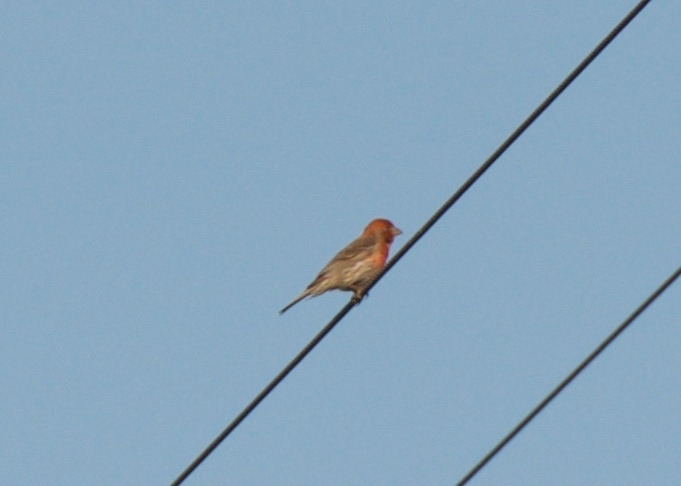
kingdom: Animalia
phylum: Chordata
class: Aves
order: Passeriformes
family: Fringillidae
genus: Haemorhous
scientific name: Haemorhous mexicanus
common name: House finch
